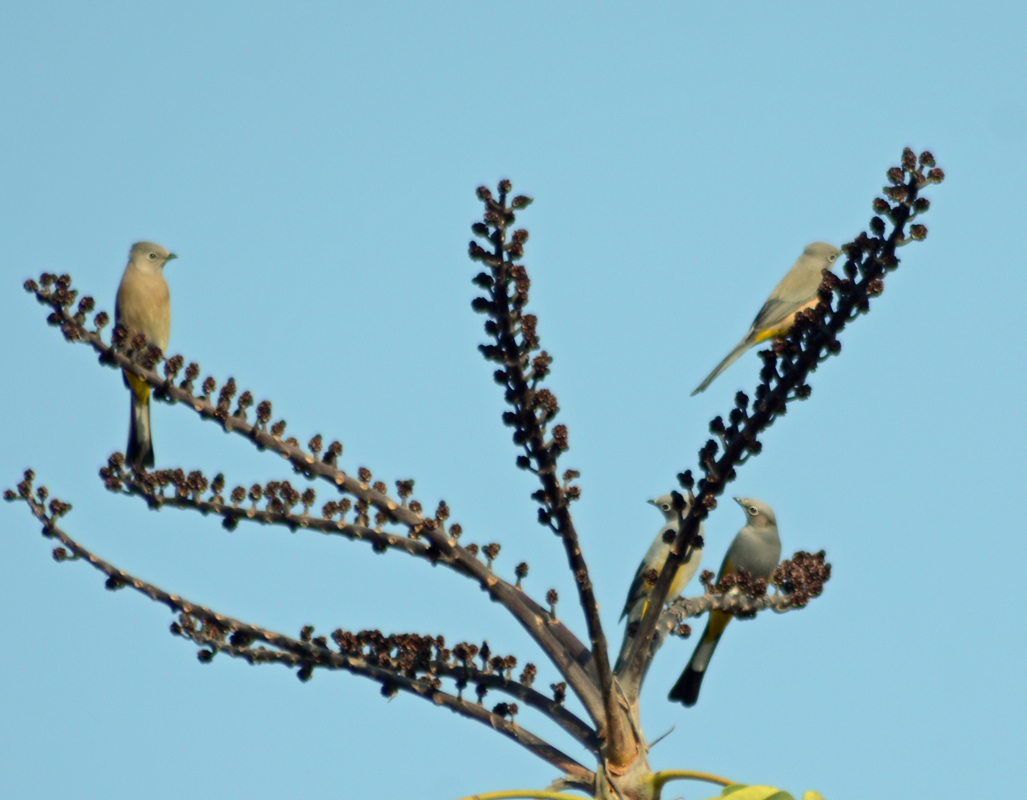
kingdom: Animalia
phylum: Chordata
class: Aves
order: Passeriformes
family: Ptilogonatidae
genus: Ptilogonys
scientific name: Ptilogonys cinereus
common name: Gray silky-flycatcher
